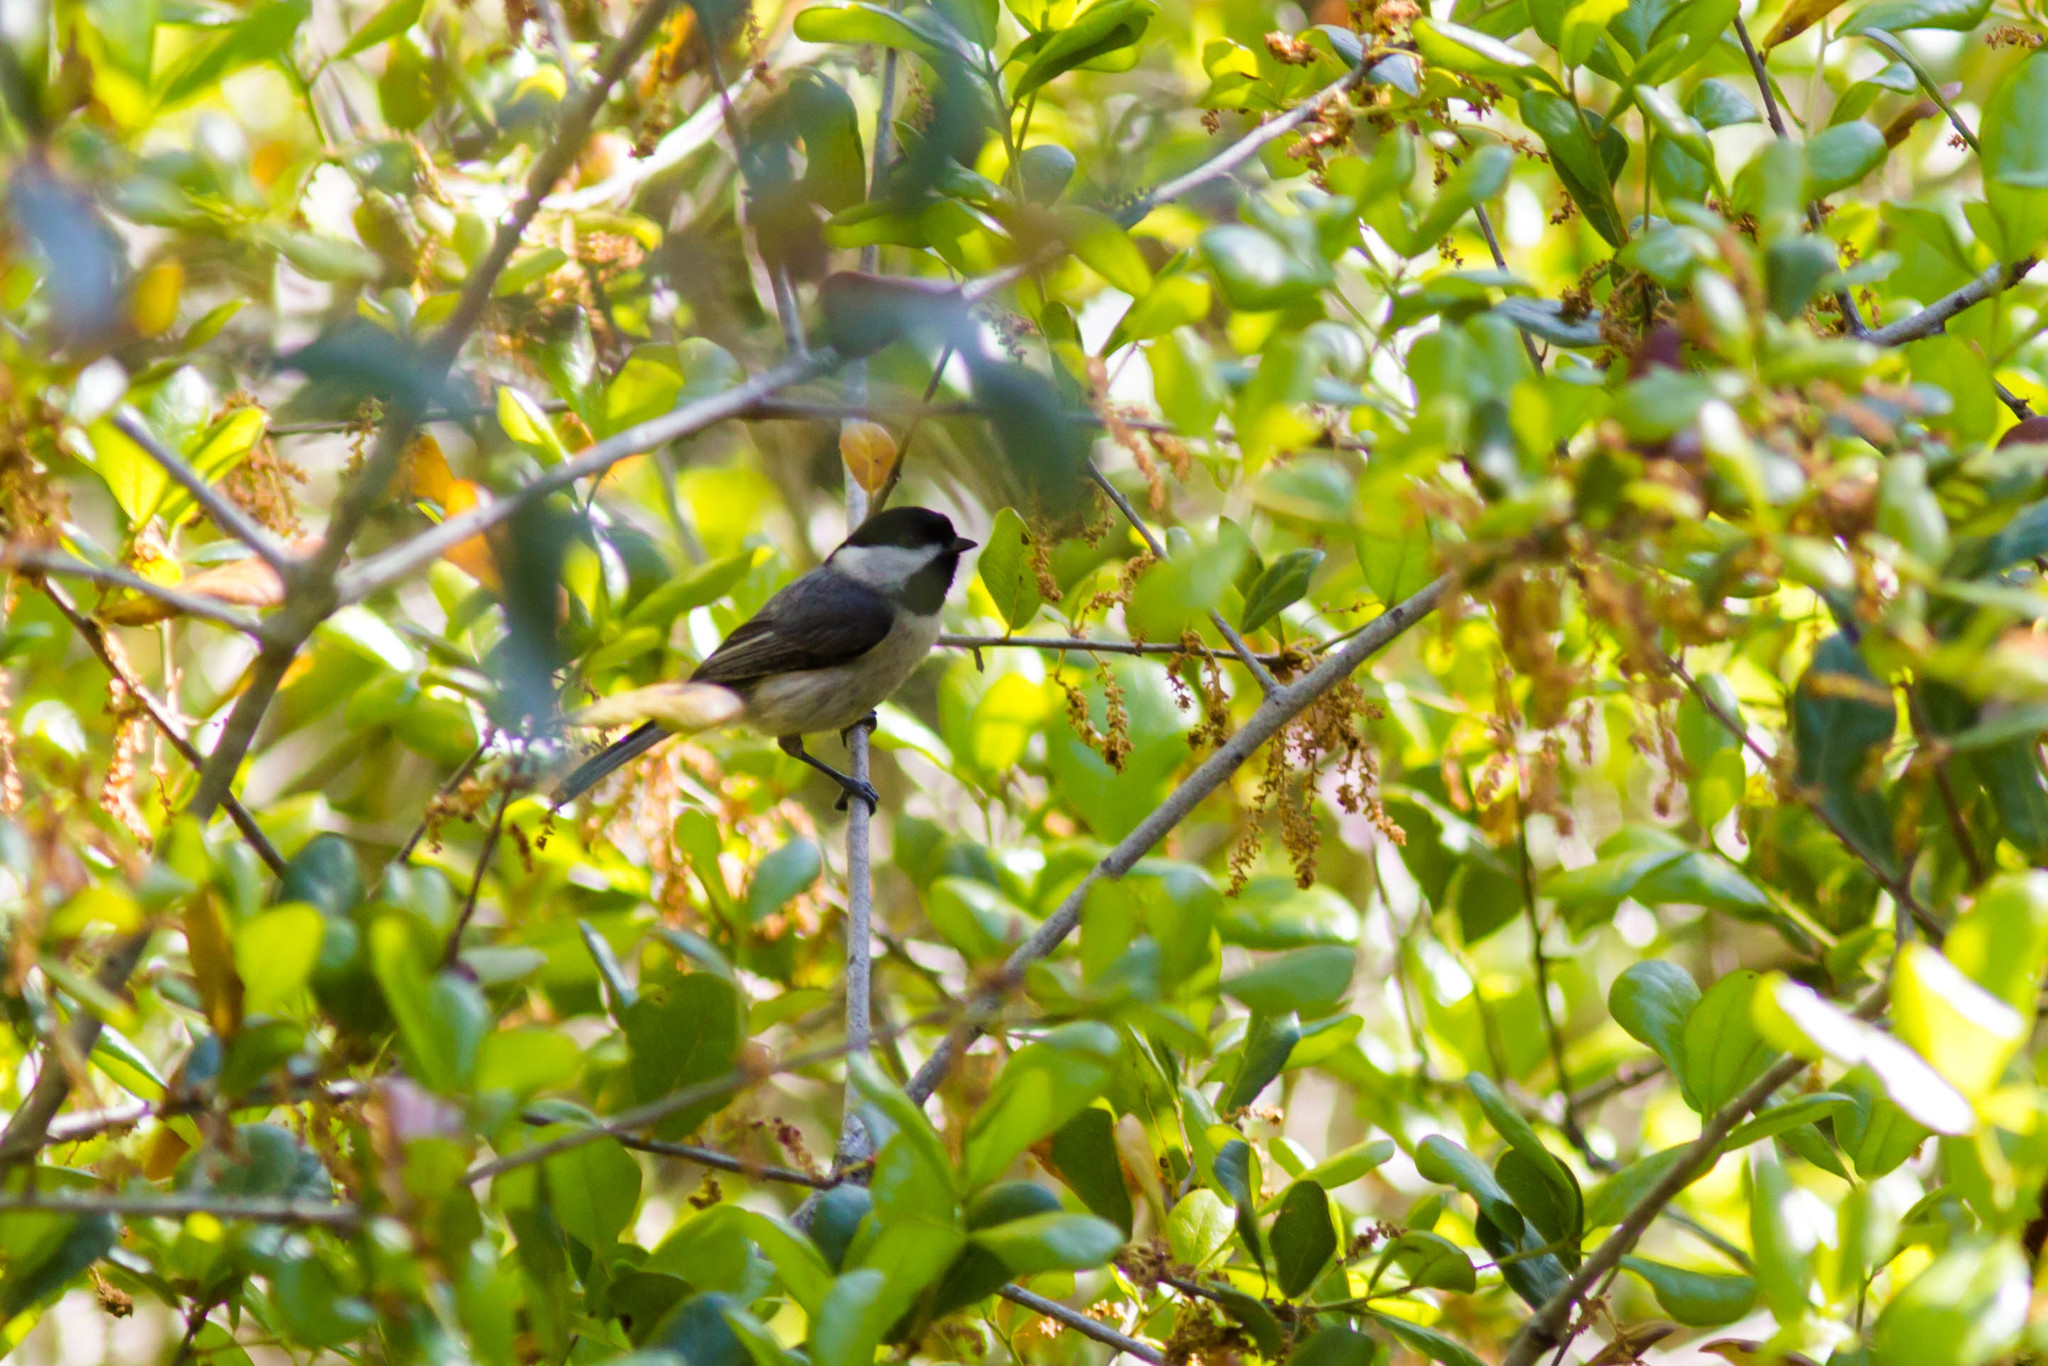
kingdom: Animalia
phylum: Chordata
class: Aves
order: Passeriformes
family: Paridae
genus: Poecile
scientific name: Poecile carolinensis
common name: Carolina chickadee
